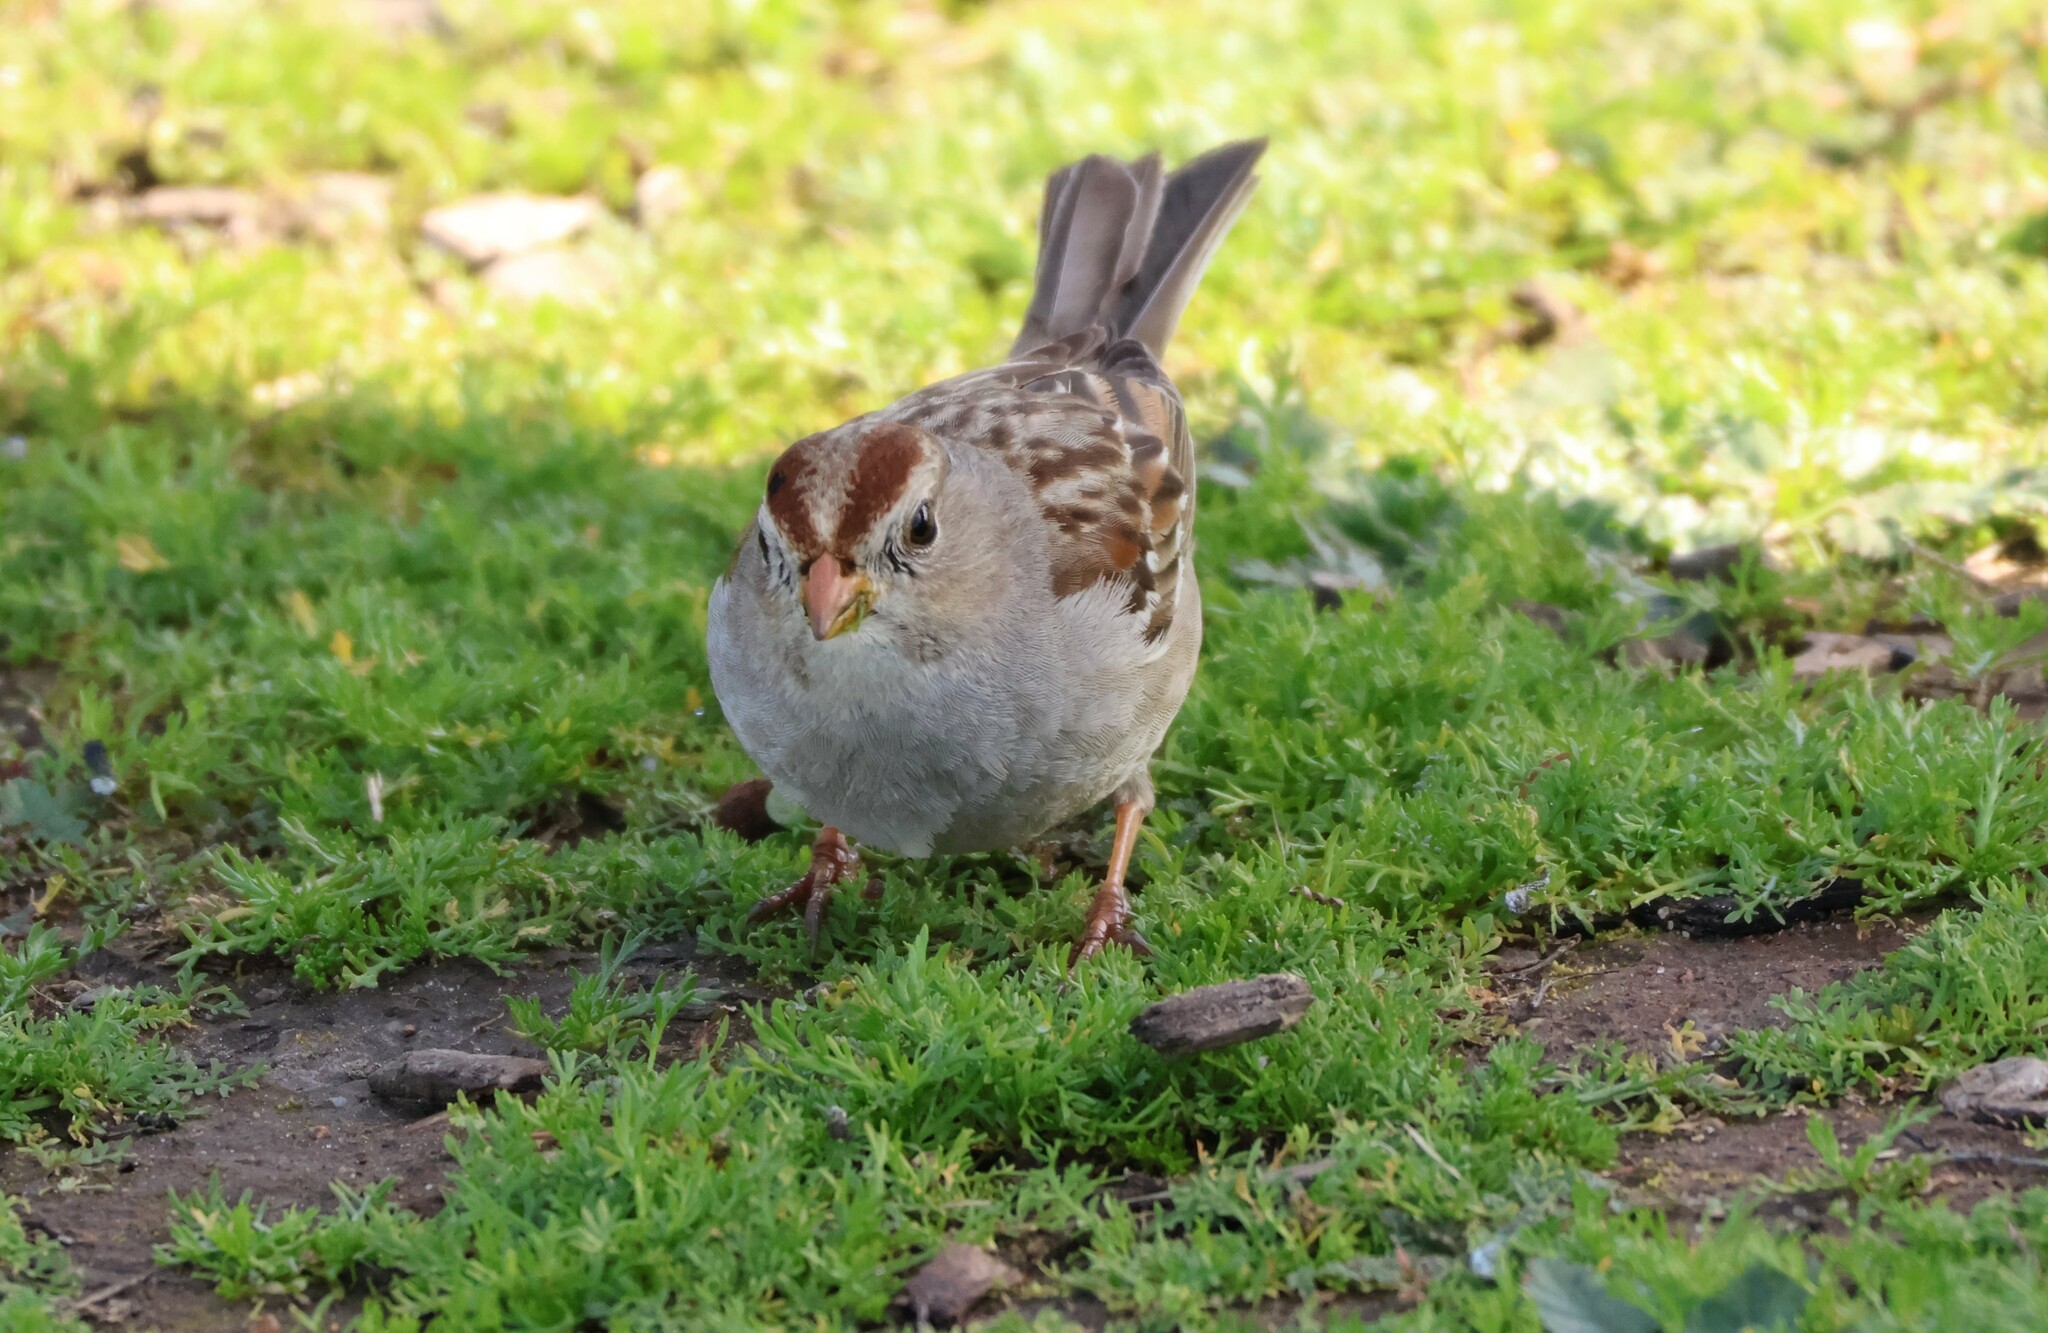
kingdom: Animalia
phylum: Chordata
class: Aves
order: Passeriformes
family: Passerellidae
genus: Zonotrichia
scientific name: Zonotrichia leucophrys
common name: White-crowned sparrow
